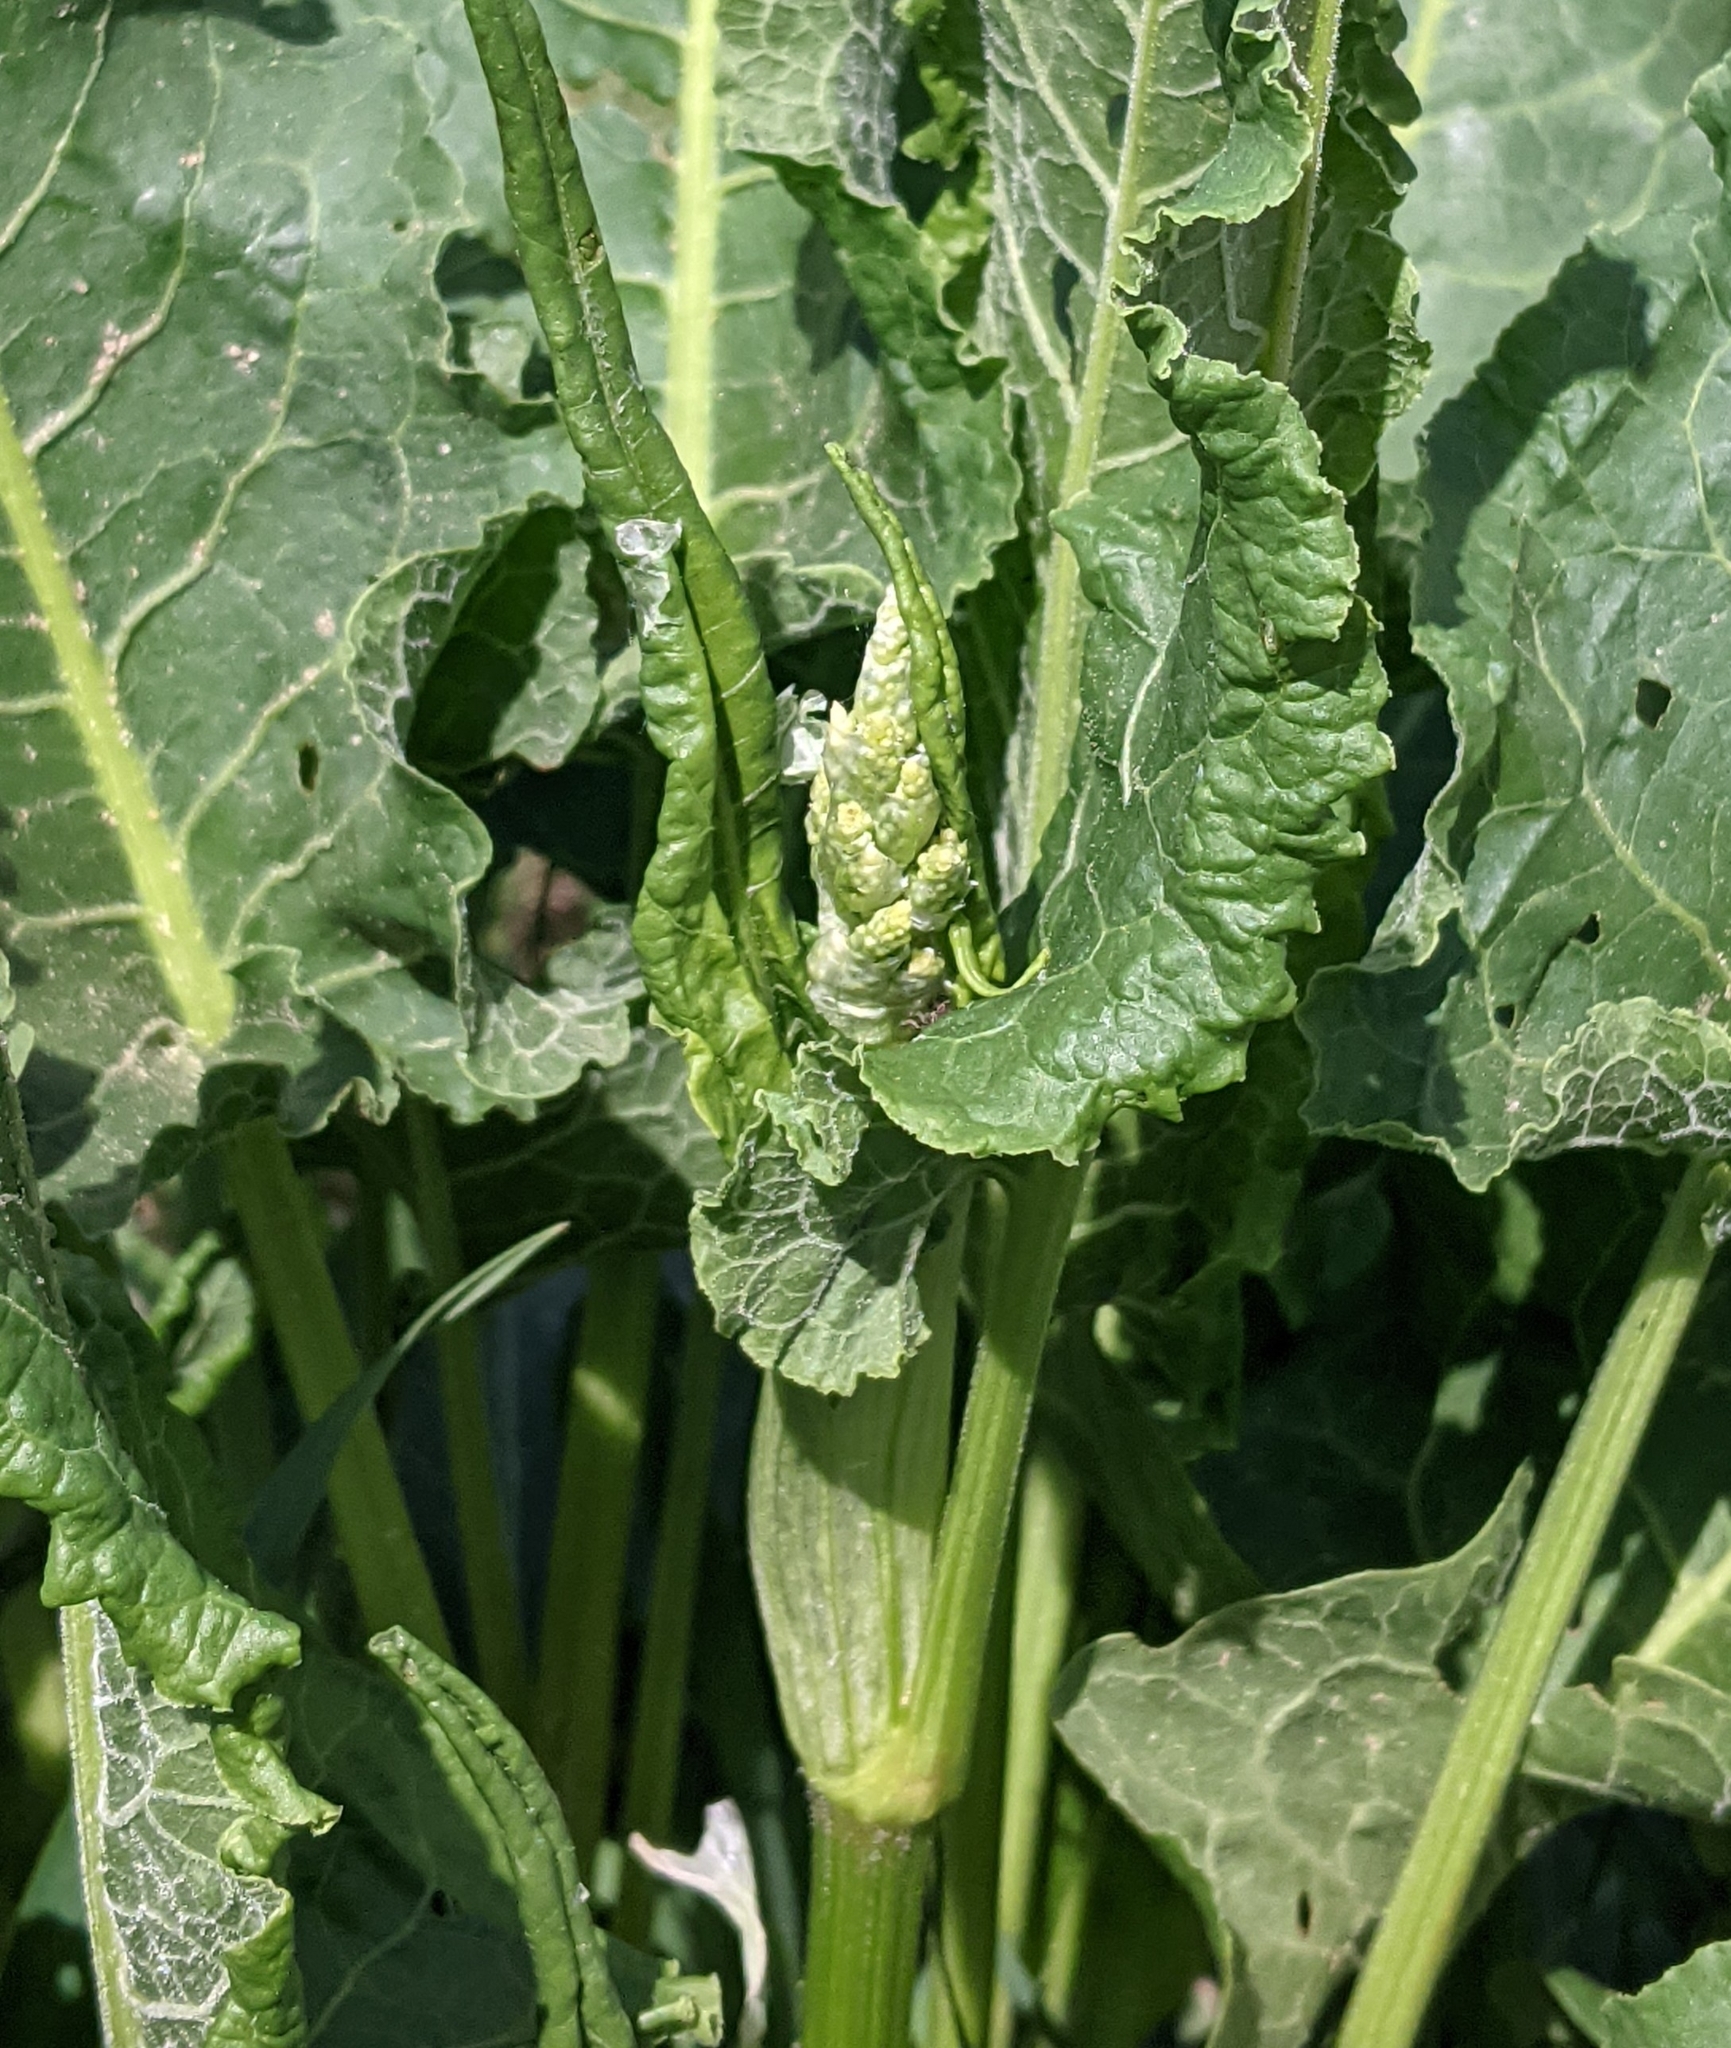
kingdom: Plantae
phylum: Tracheophyta
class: Magnoliopsida
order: Caryophyllales
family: Polygonaceae
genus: Rumex
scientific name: Rumex confertus
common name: Russian dock
